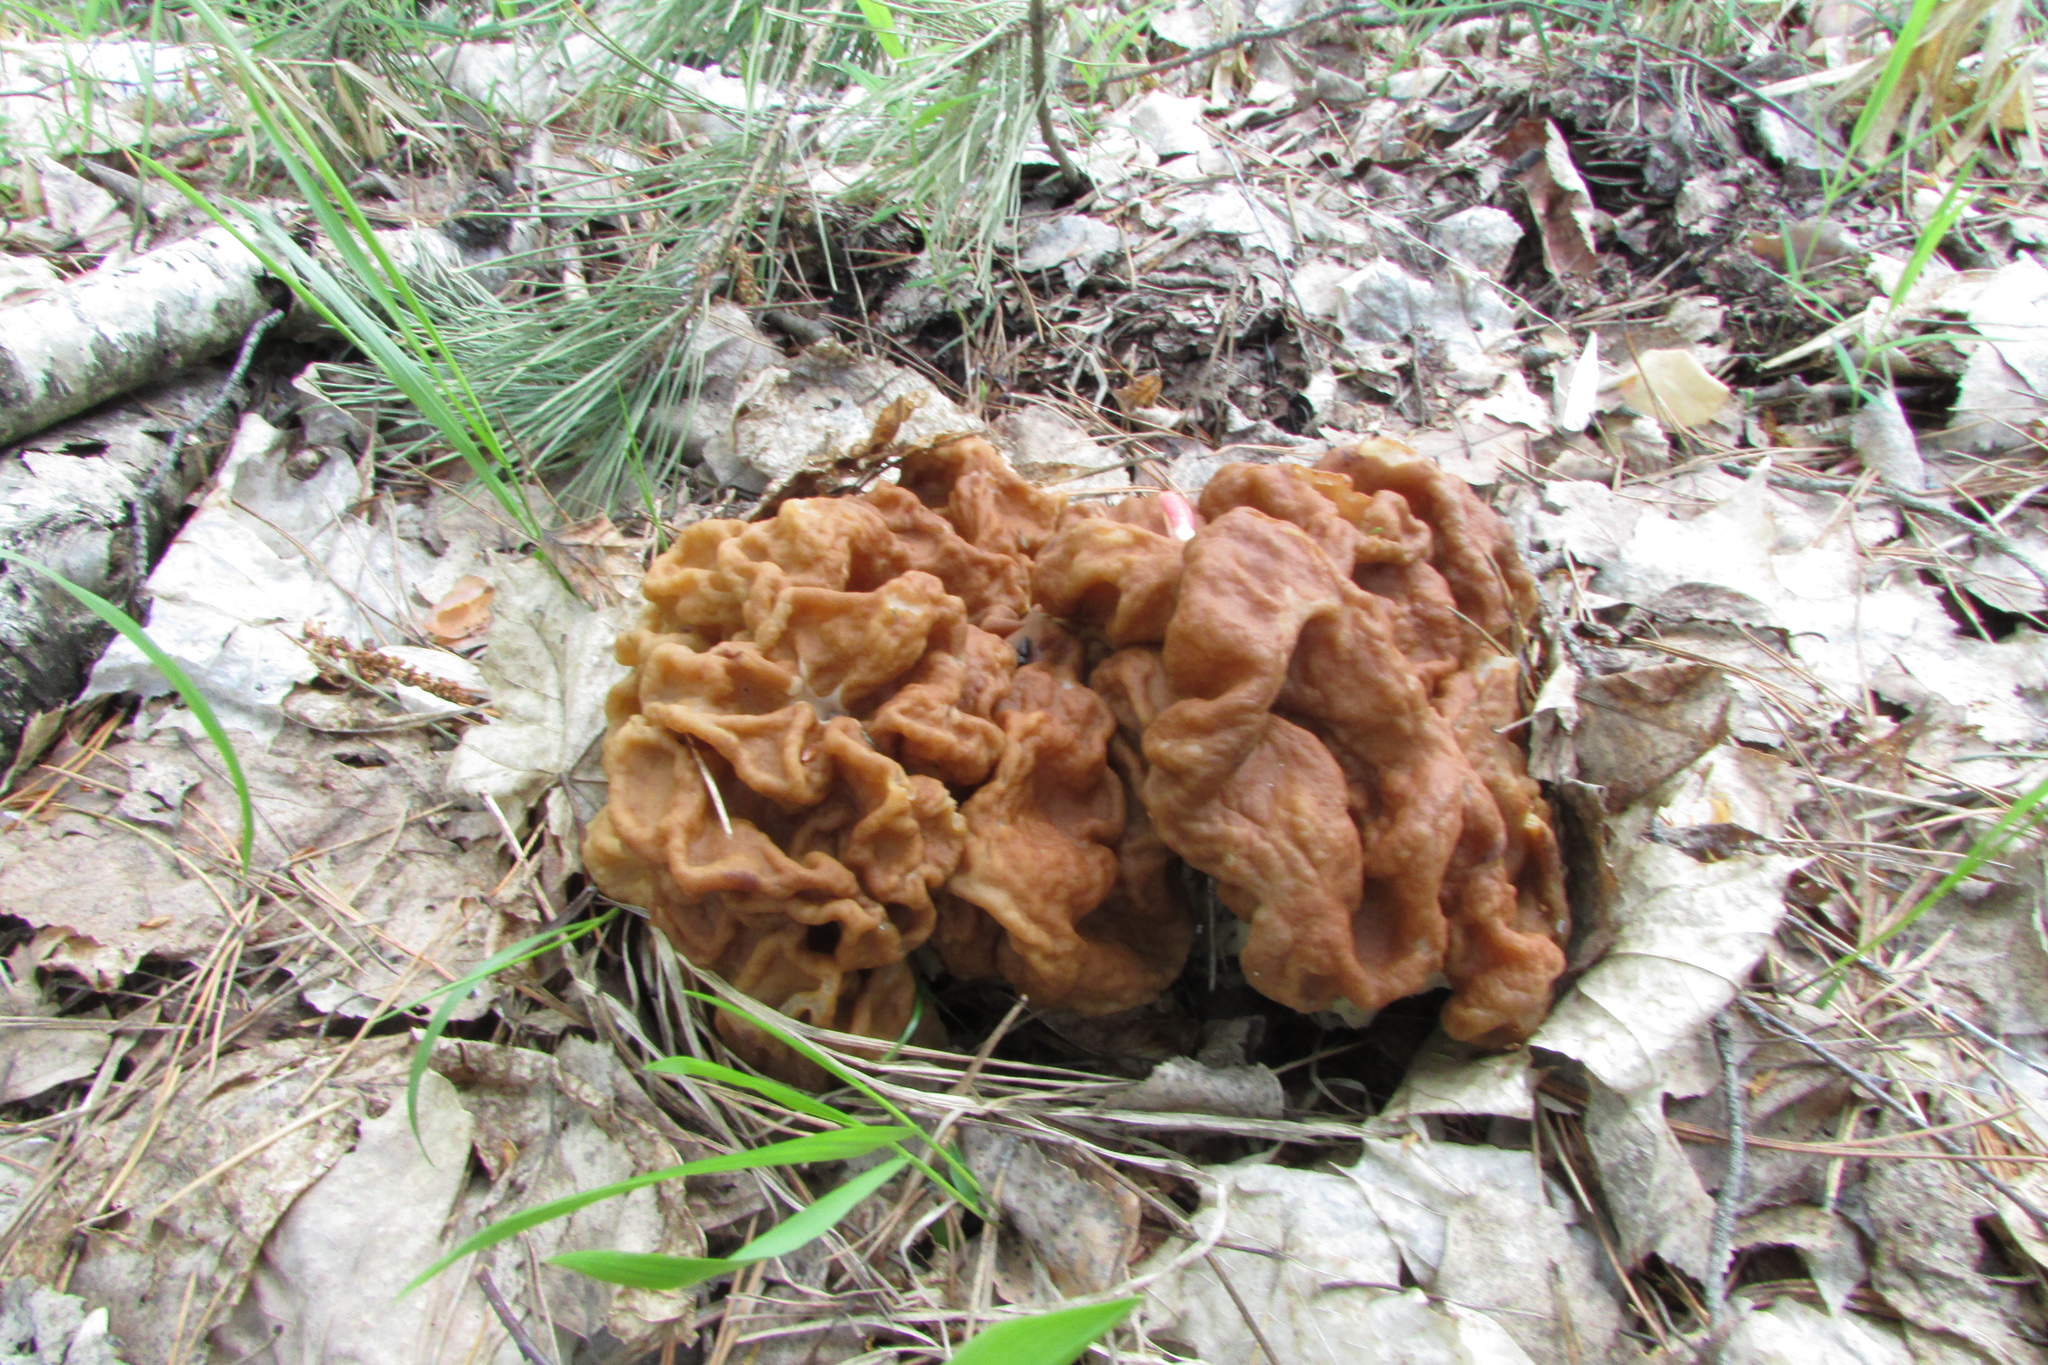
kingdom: Fungi
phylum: Ascomycota
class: Pezizomycetes
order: Pezizales
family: Discinaceae
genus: Gyromitra
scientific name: Gyromitra gigas
